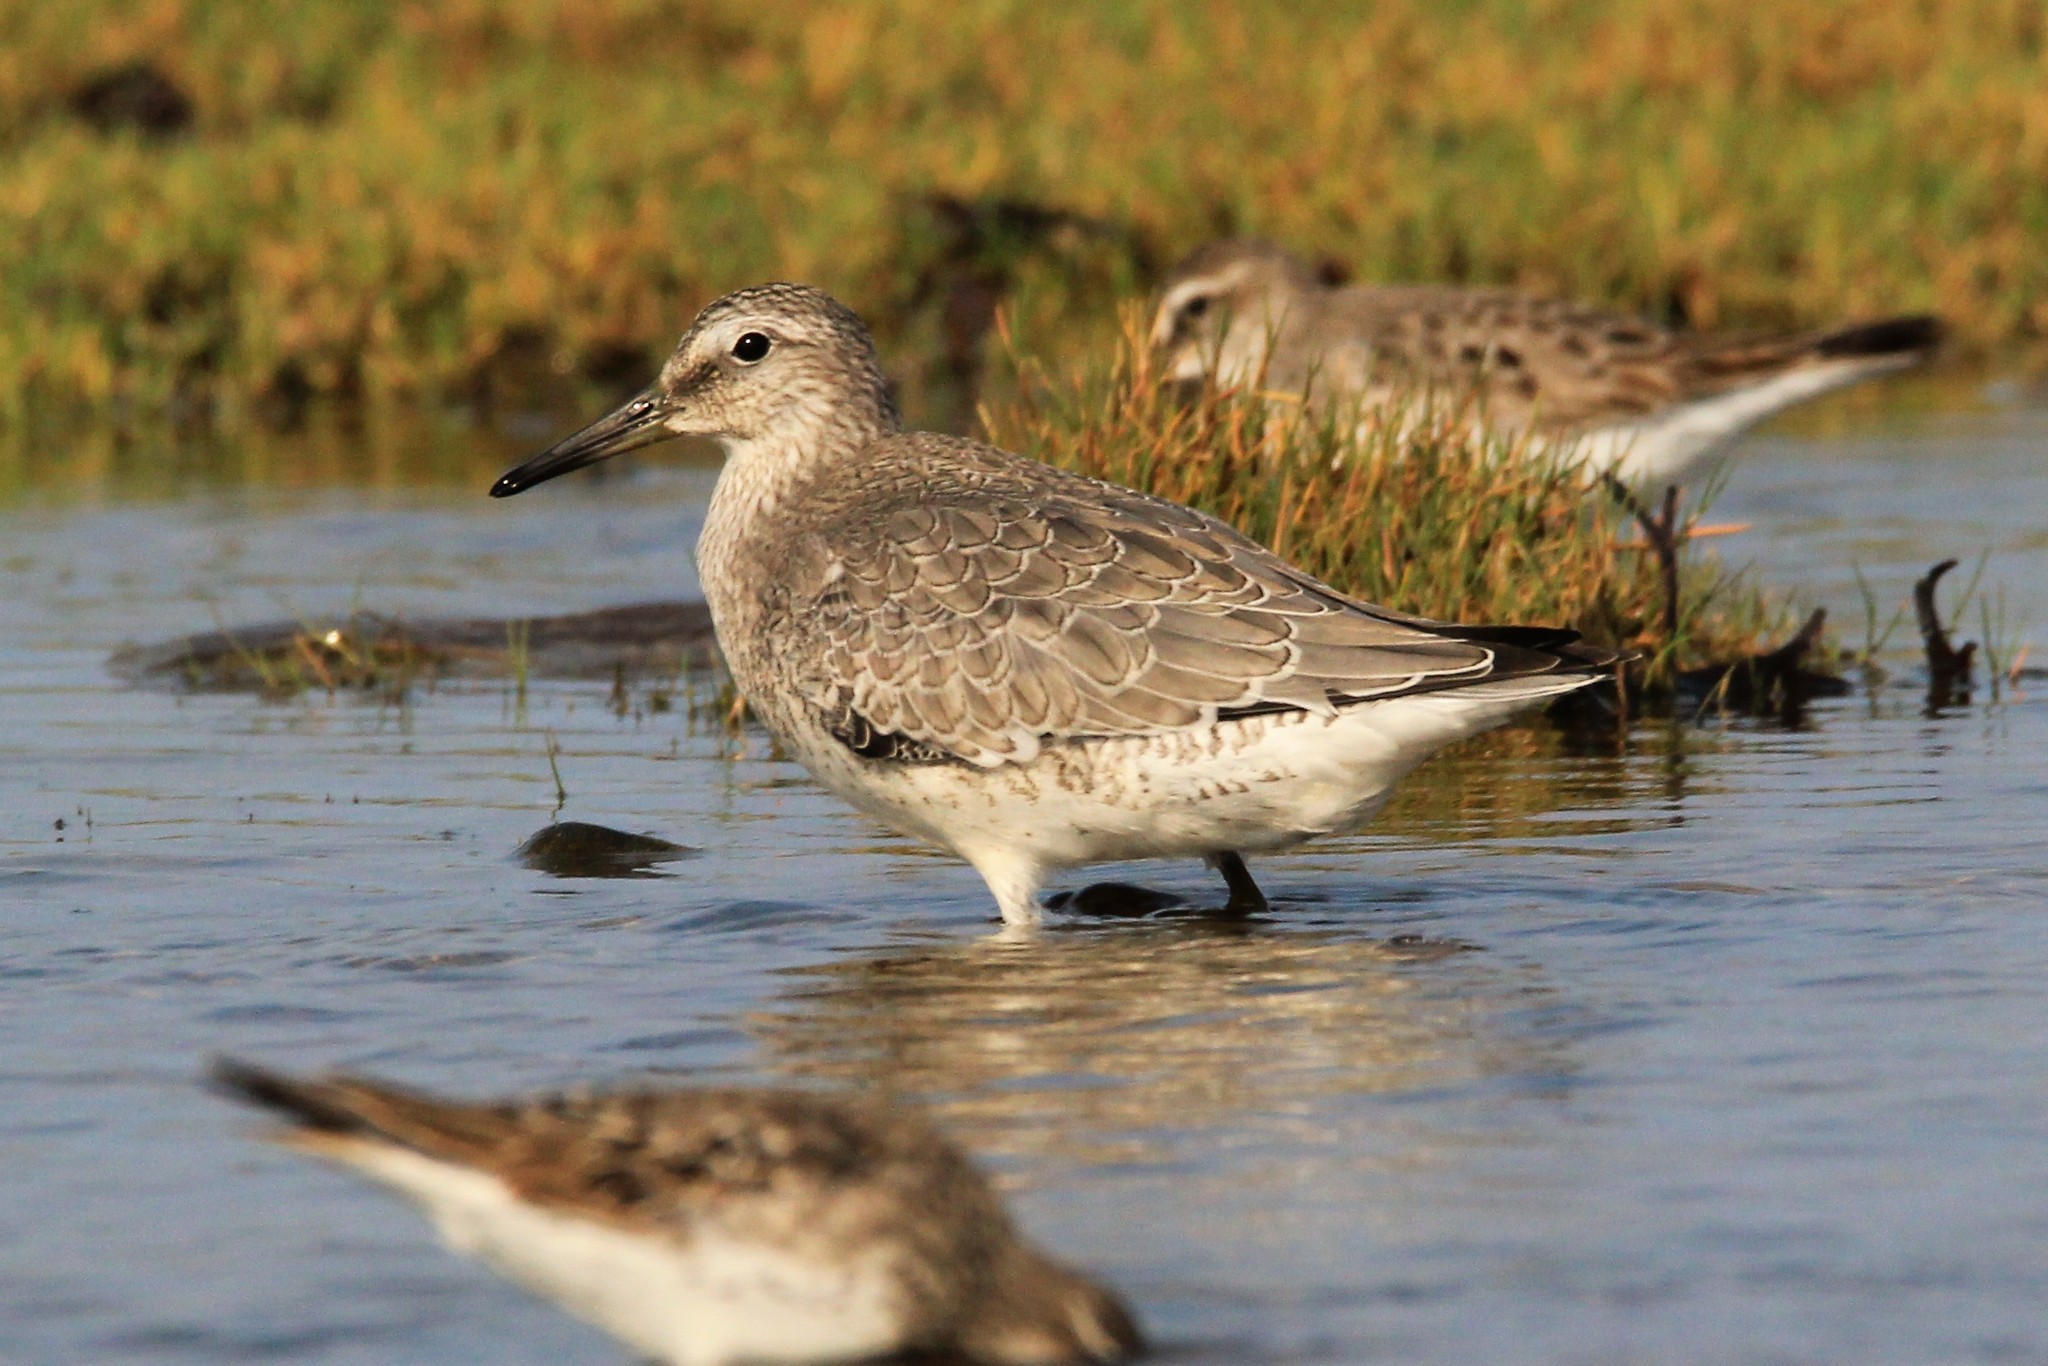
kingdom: Animalia
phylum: Chordata
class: Aves
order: Charadriiformes
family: Scolopacidae
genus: Calidris
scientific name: Calidris canutus
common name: Red knot
